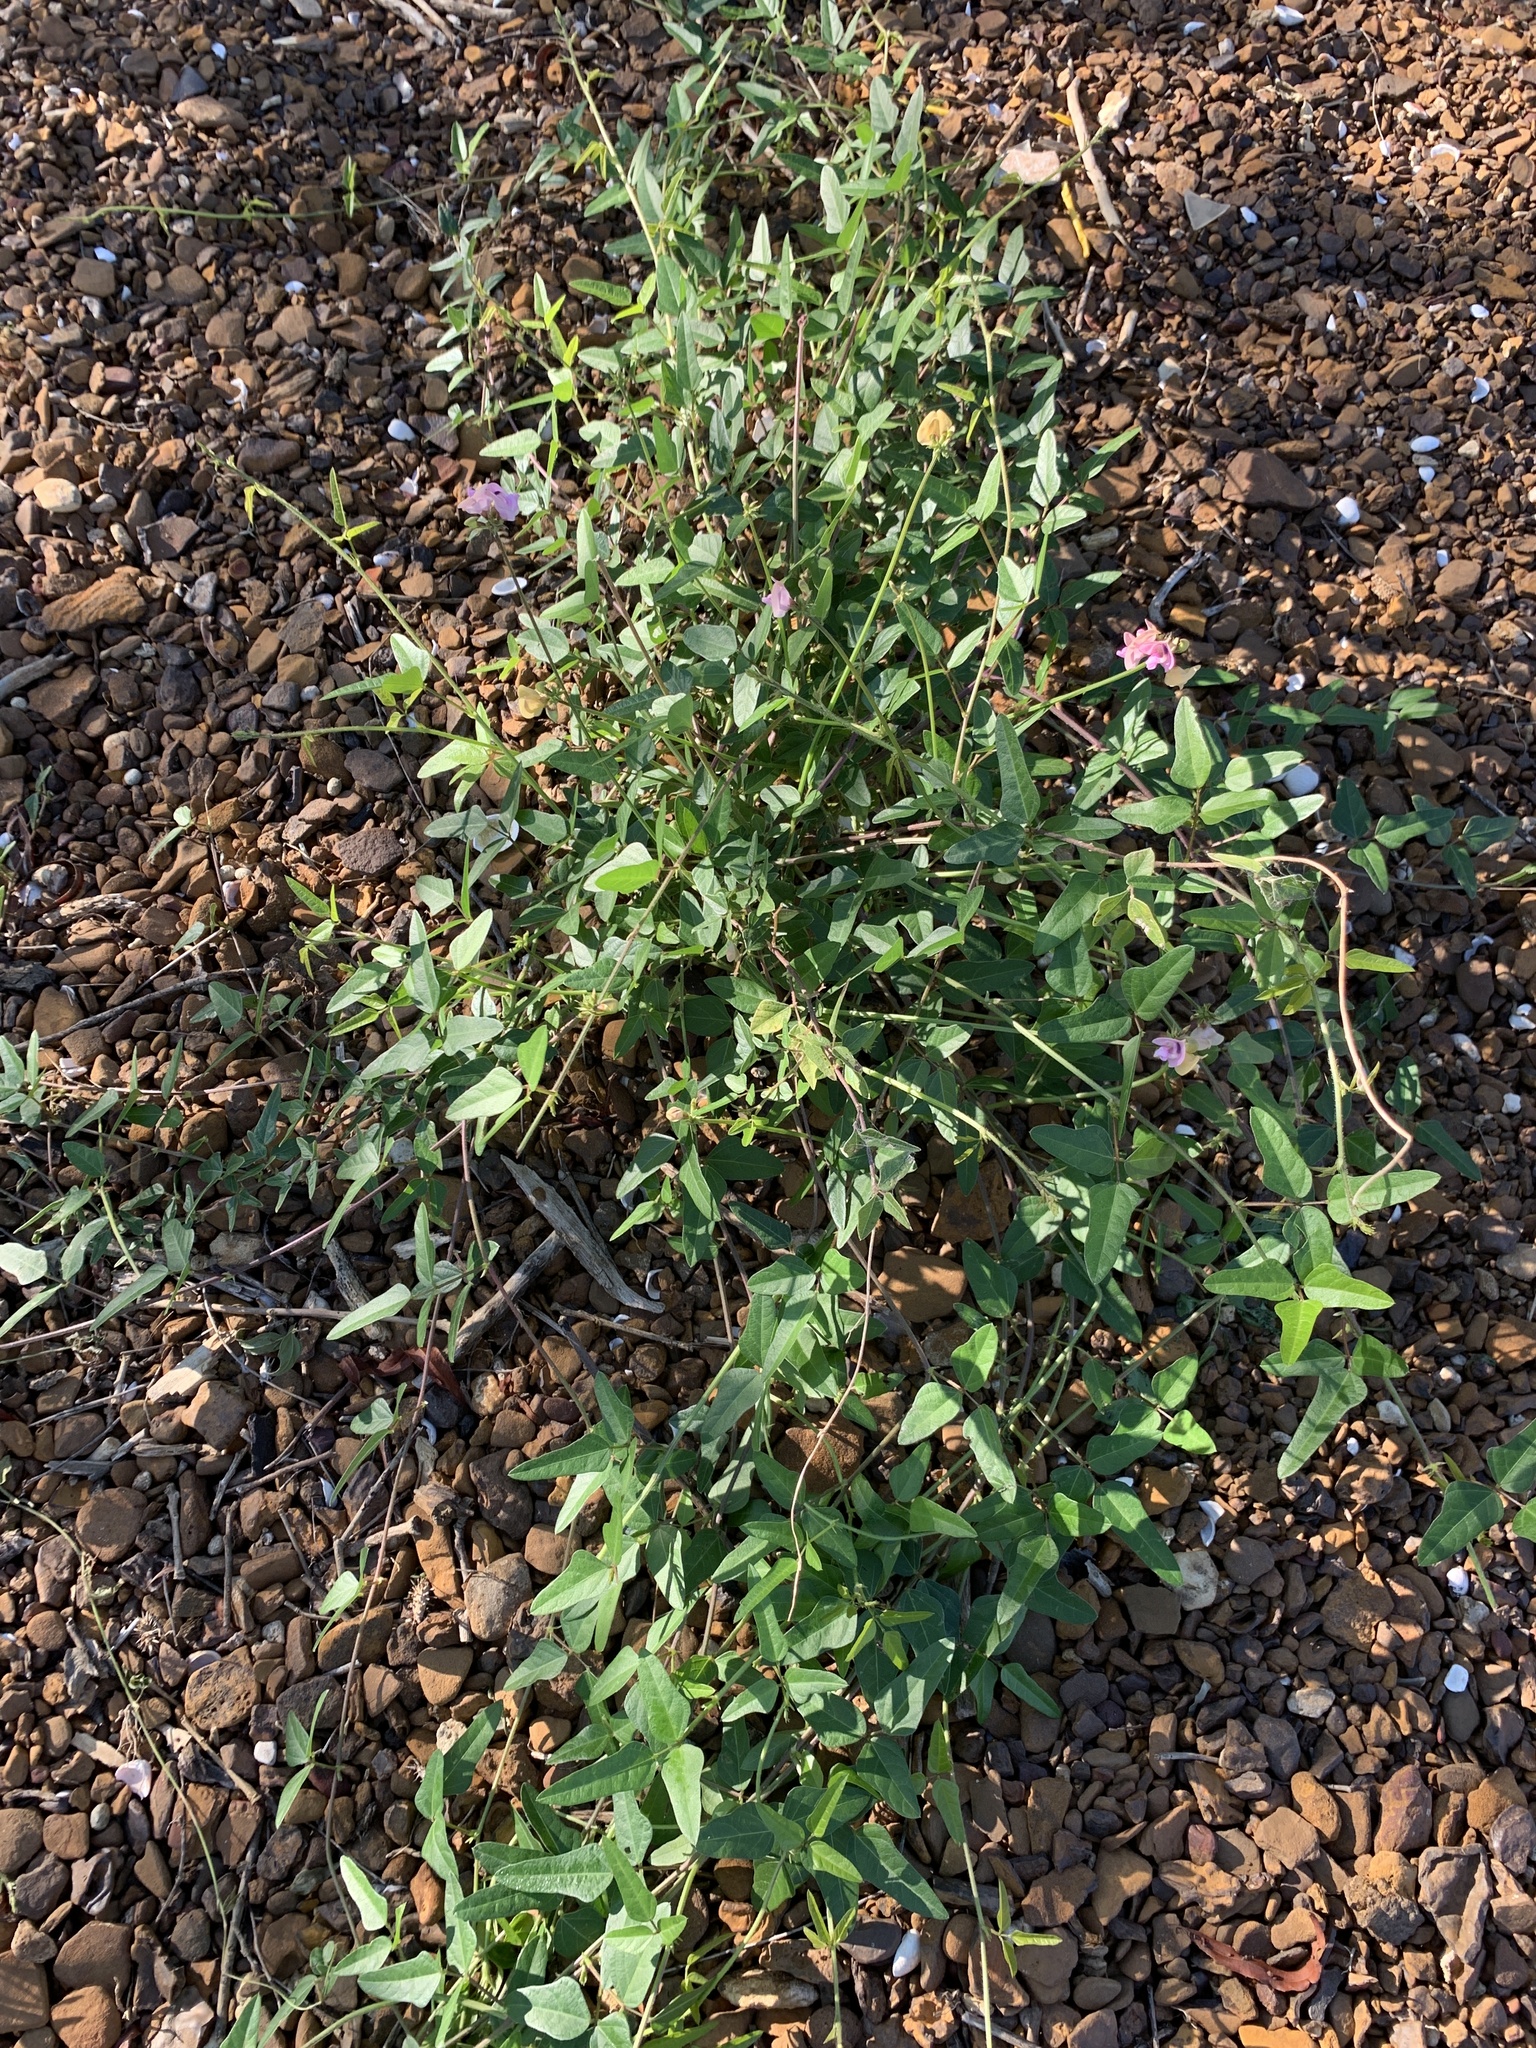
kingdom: Plantae
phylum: Tracheophyta
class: Magnoliopsida
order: Fabales
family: Fabaceae
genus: Strophostyles
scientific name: Strophostyles helvola
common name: Trailing wild bean
